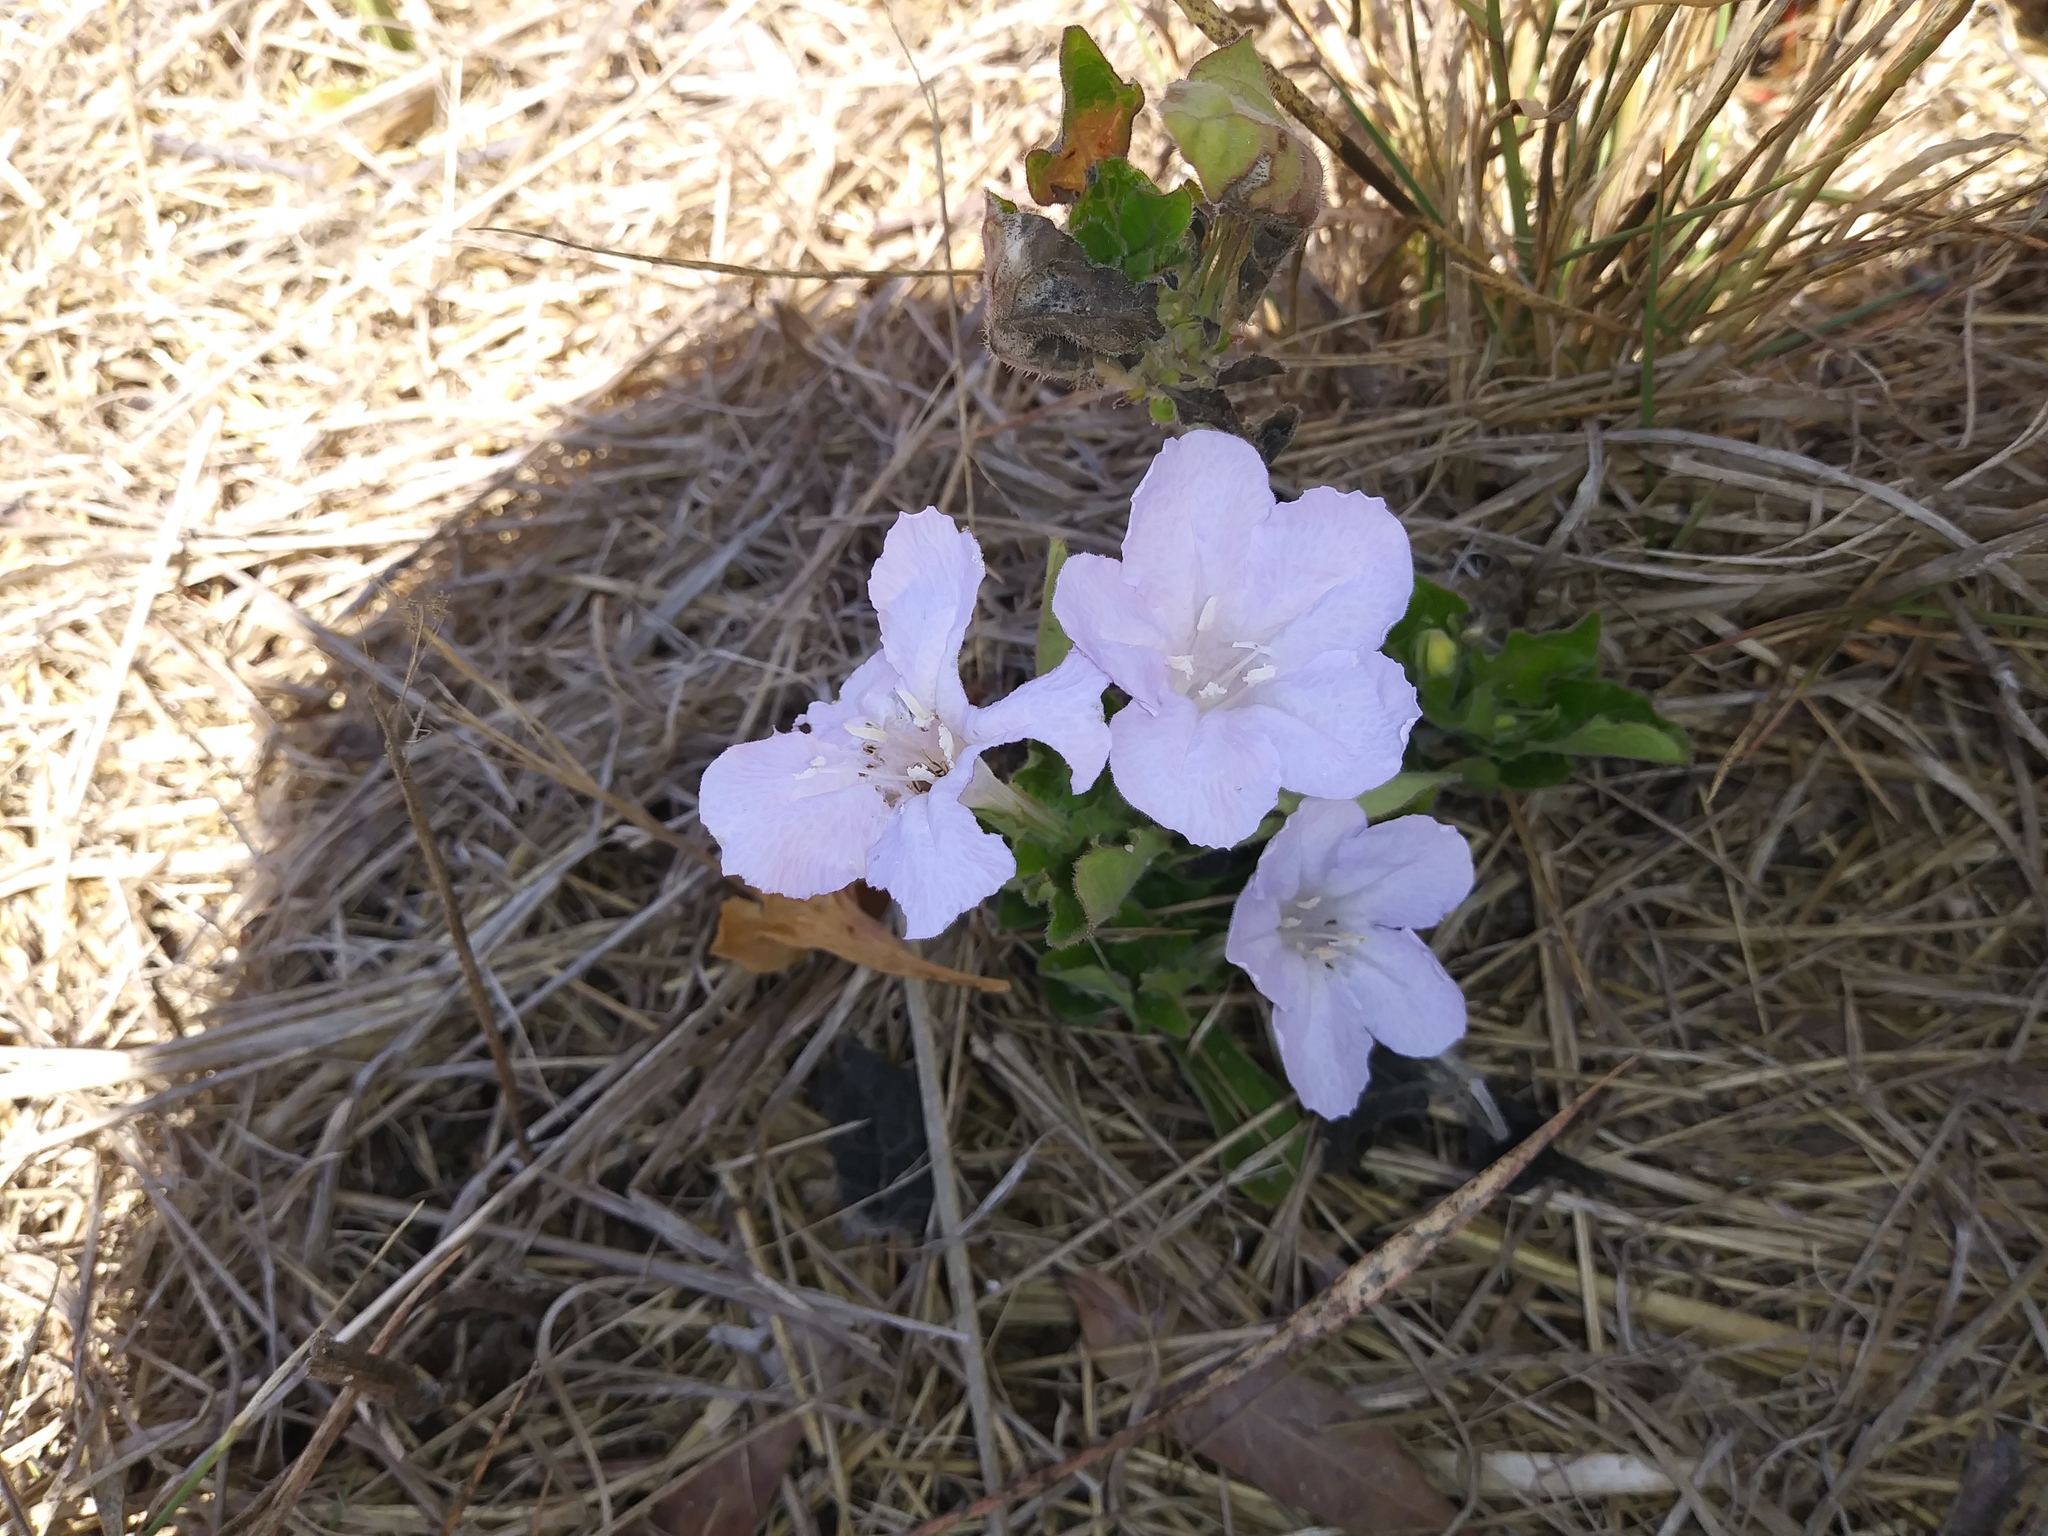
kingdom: Plantae
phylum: Tracheophyta
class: Magnoliopsida
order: Lamiales
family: Acanthaceae
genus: Ruellia
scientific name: Ruellia caroliniensis
